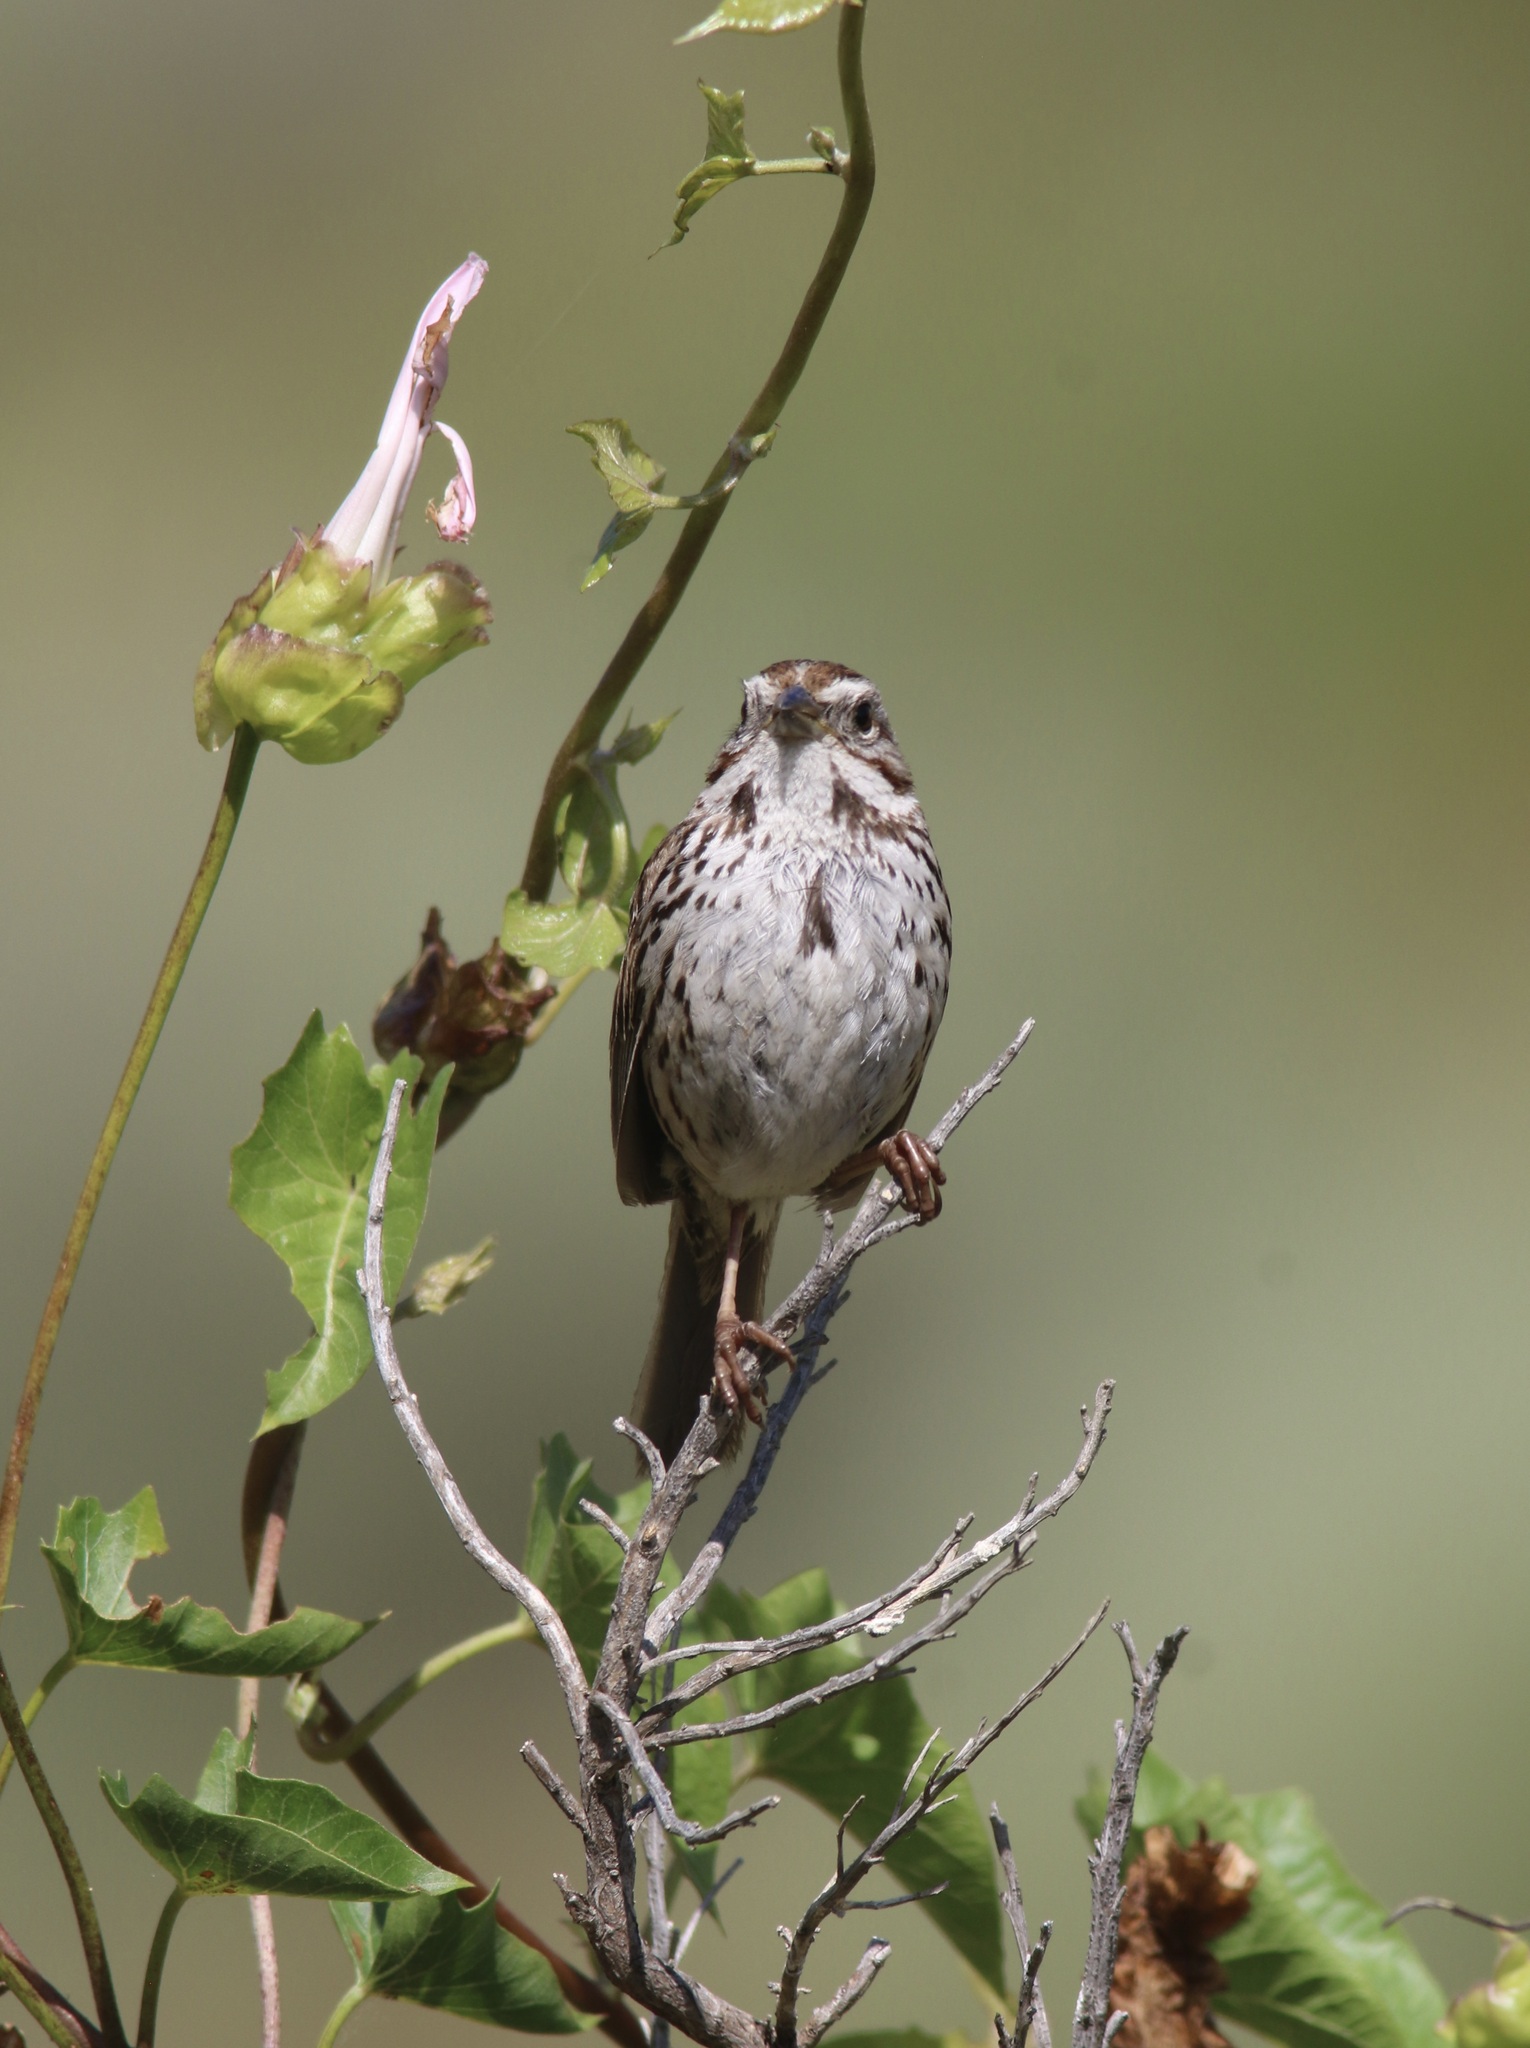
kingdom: Animalia
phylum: Chordata
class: Aves
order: Passeriformes
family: Passerellidae
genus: Melospiza
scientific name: Melospiza melodia
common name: Song sparrow
